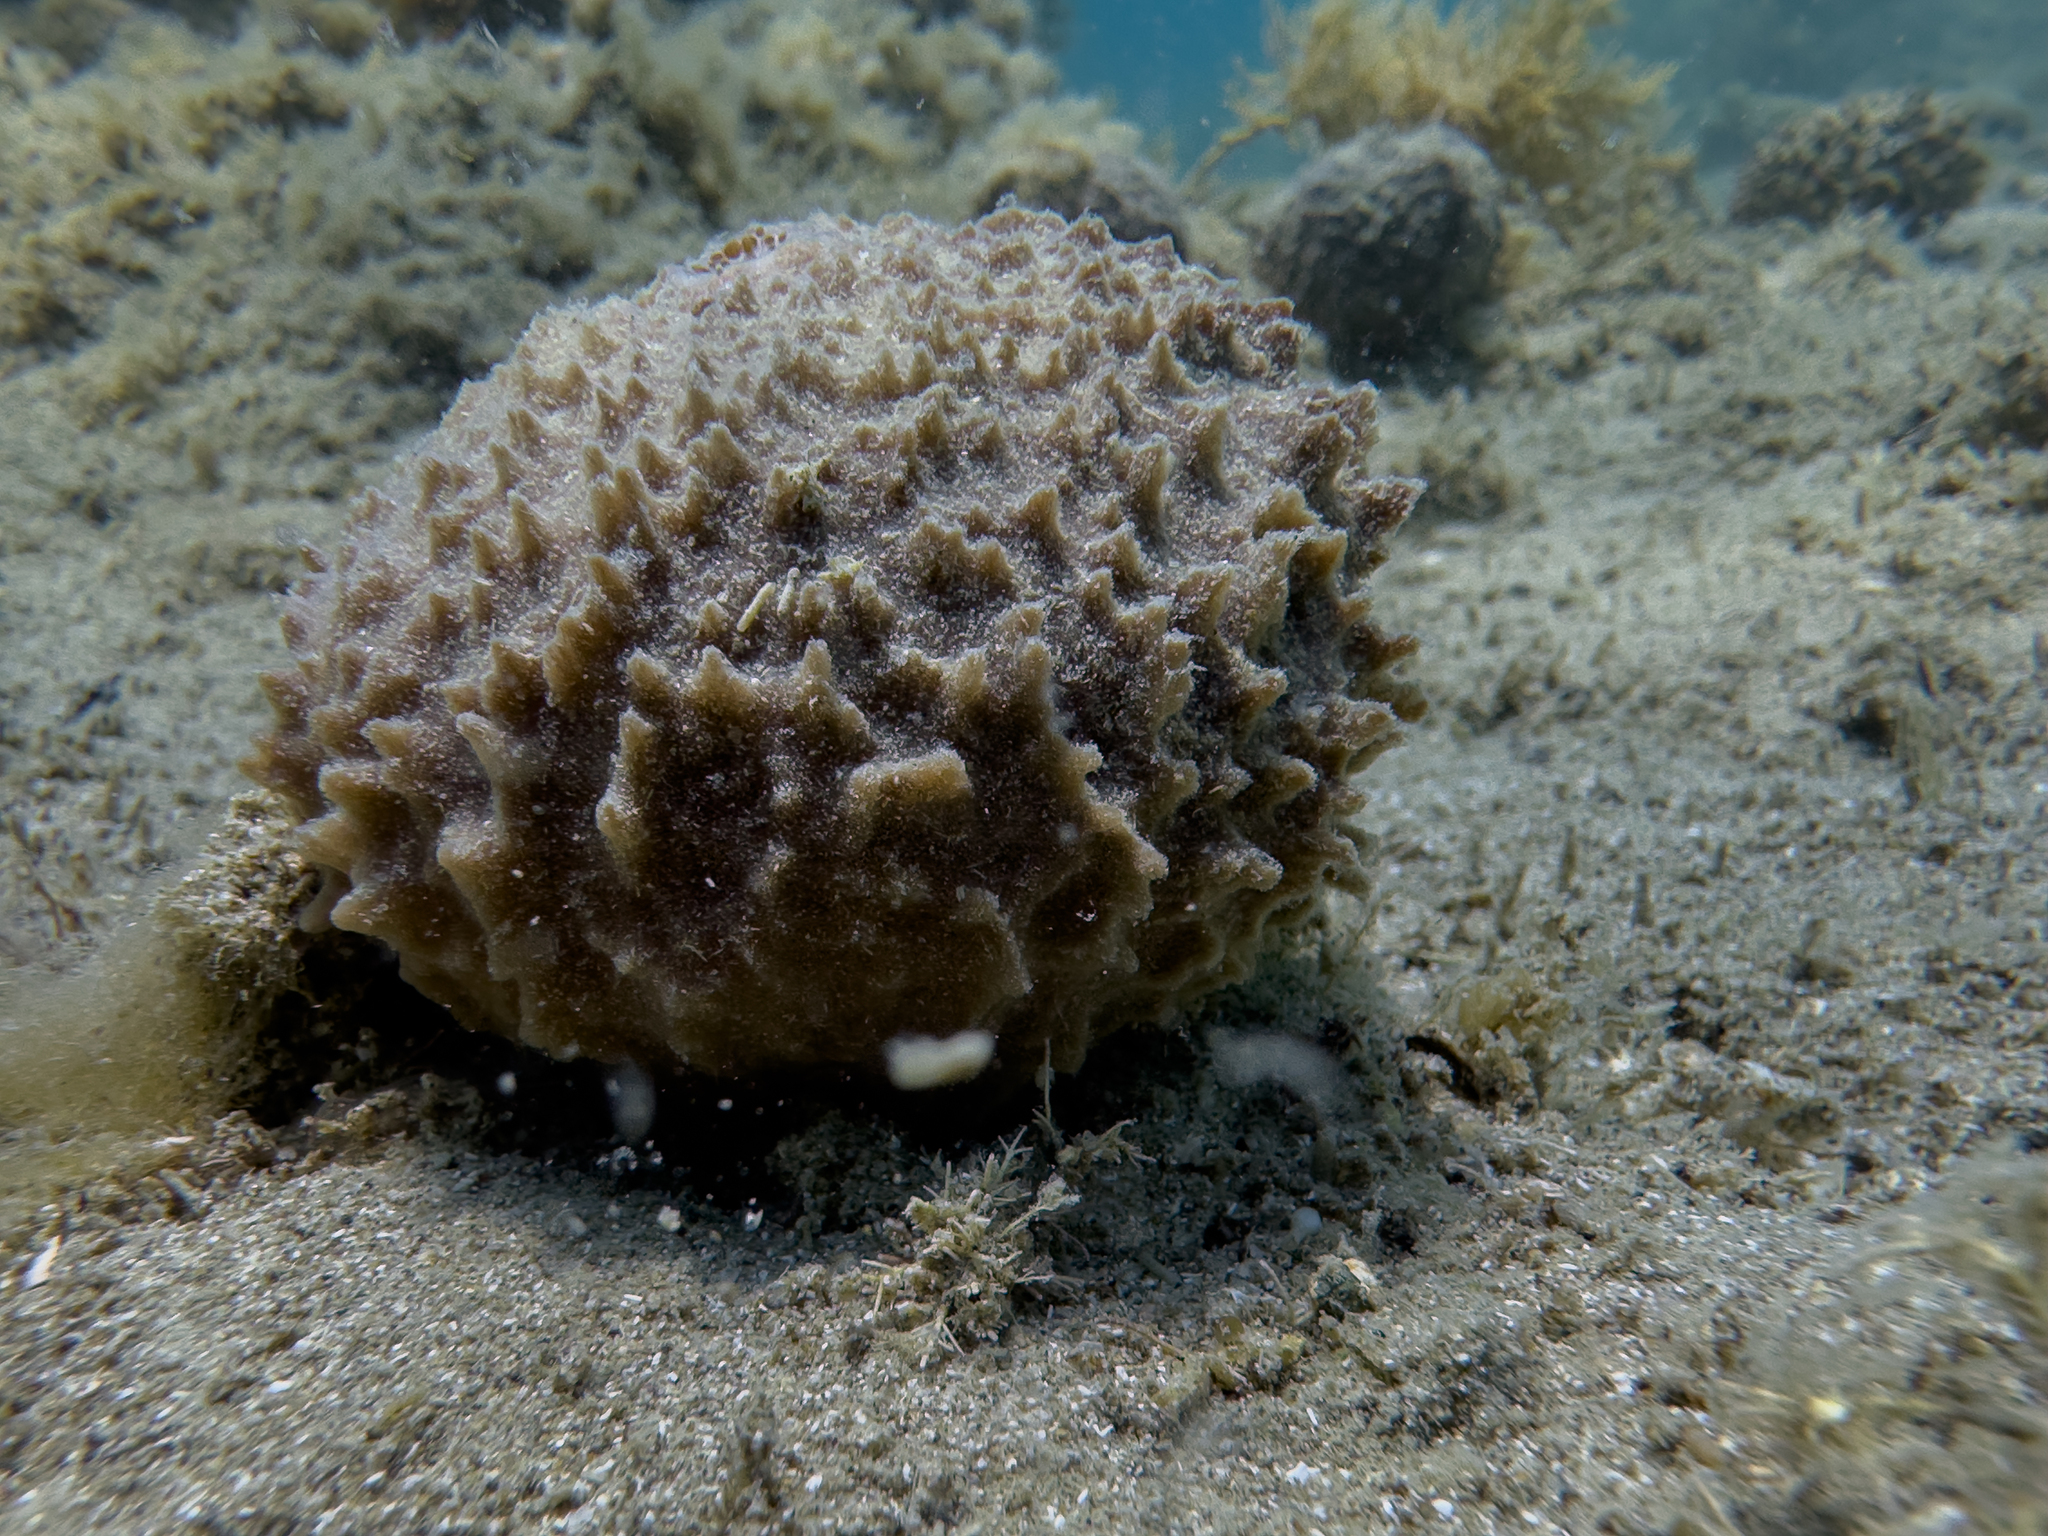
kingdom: Animalia
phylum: Porifera
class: Demospongiae
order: Suberitida
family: Suberitidae
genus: Aaptos
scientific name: Aaptos tenta
